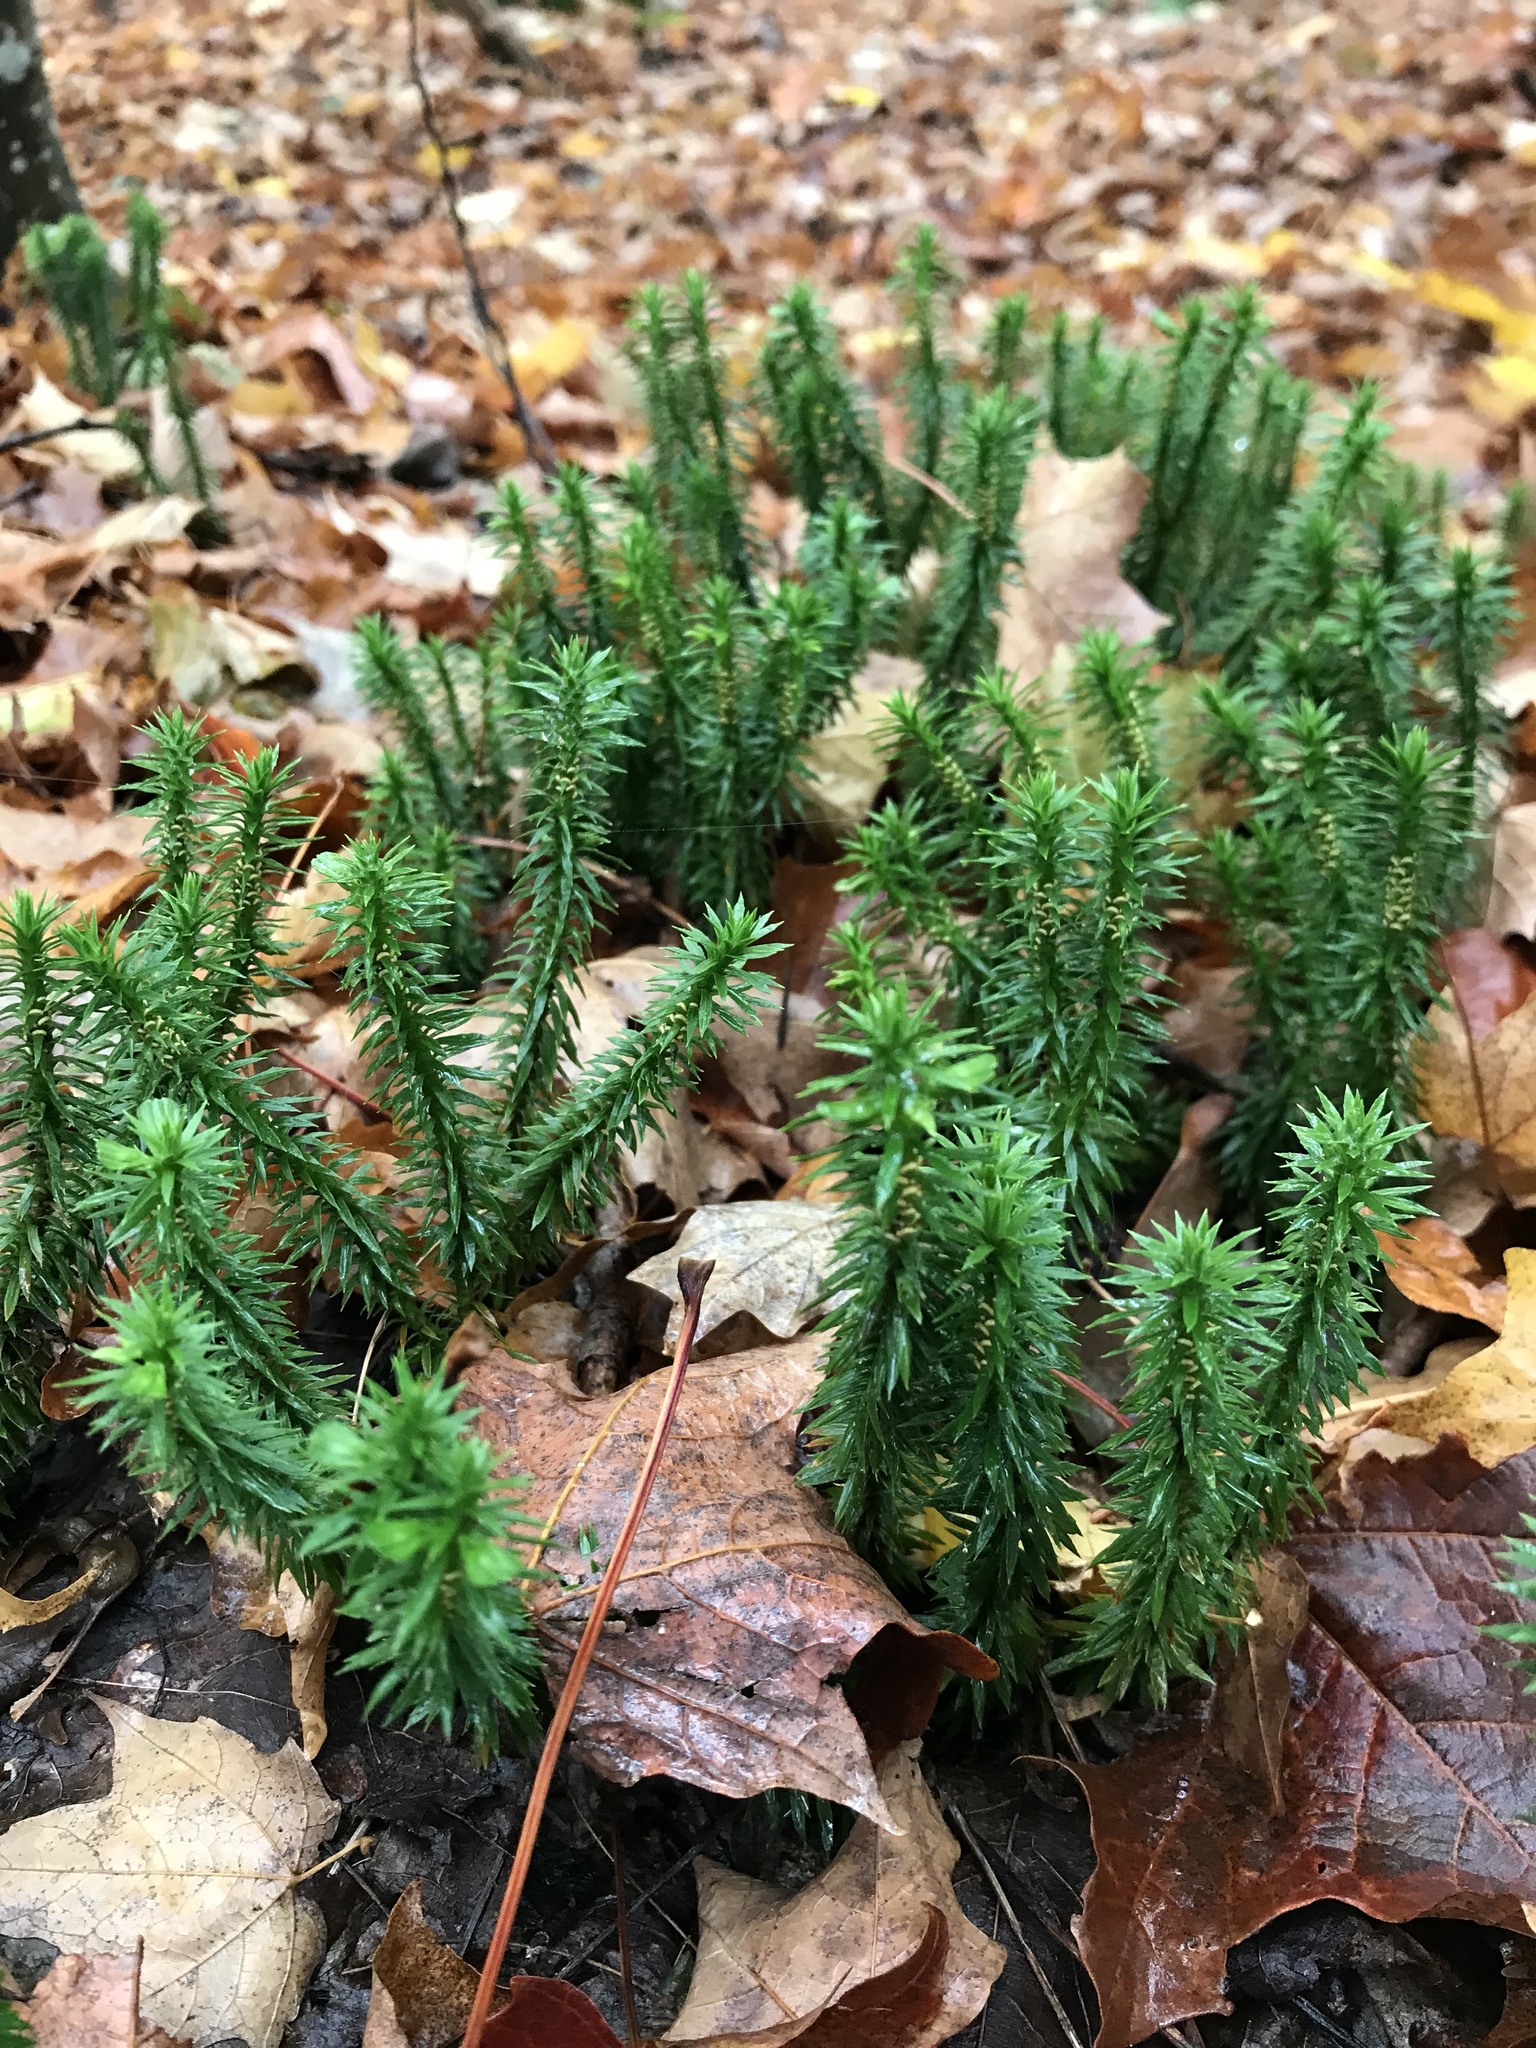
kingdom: Plantae
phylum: Tracheophyta
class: Lycopodiopsida
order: Lycopodiales
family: Lycopodiaceae
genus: Huperzia
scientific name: Huperzia lucidula
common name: Shining clubmoss
